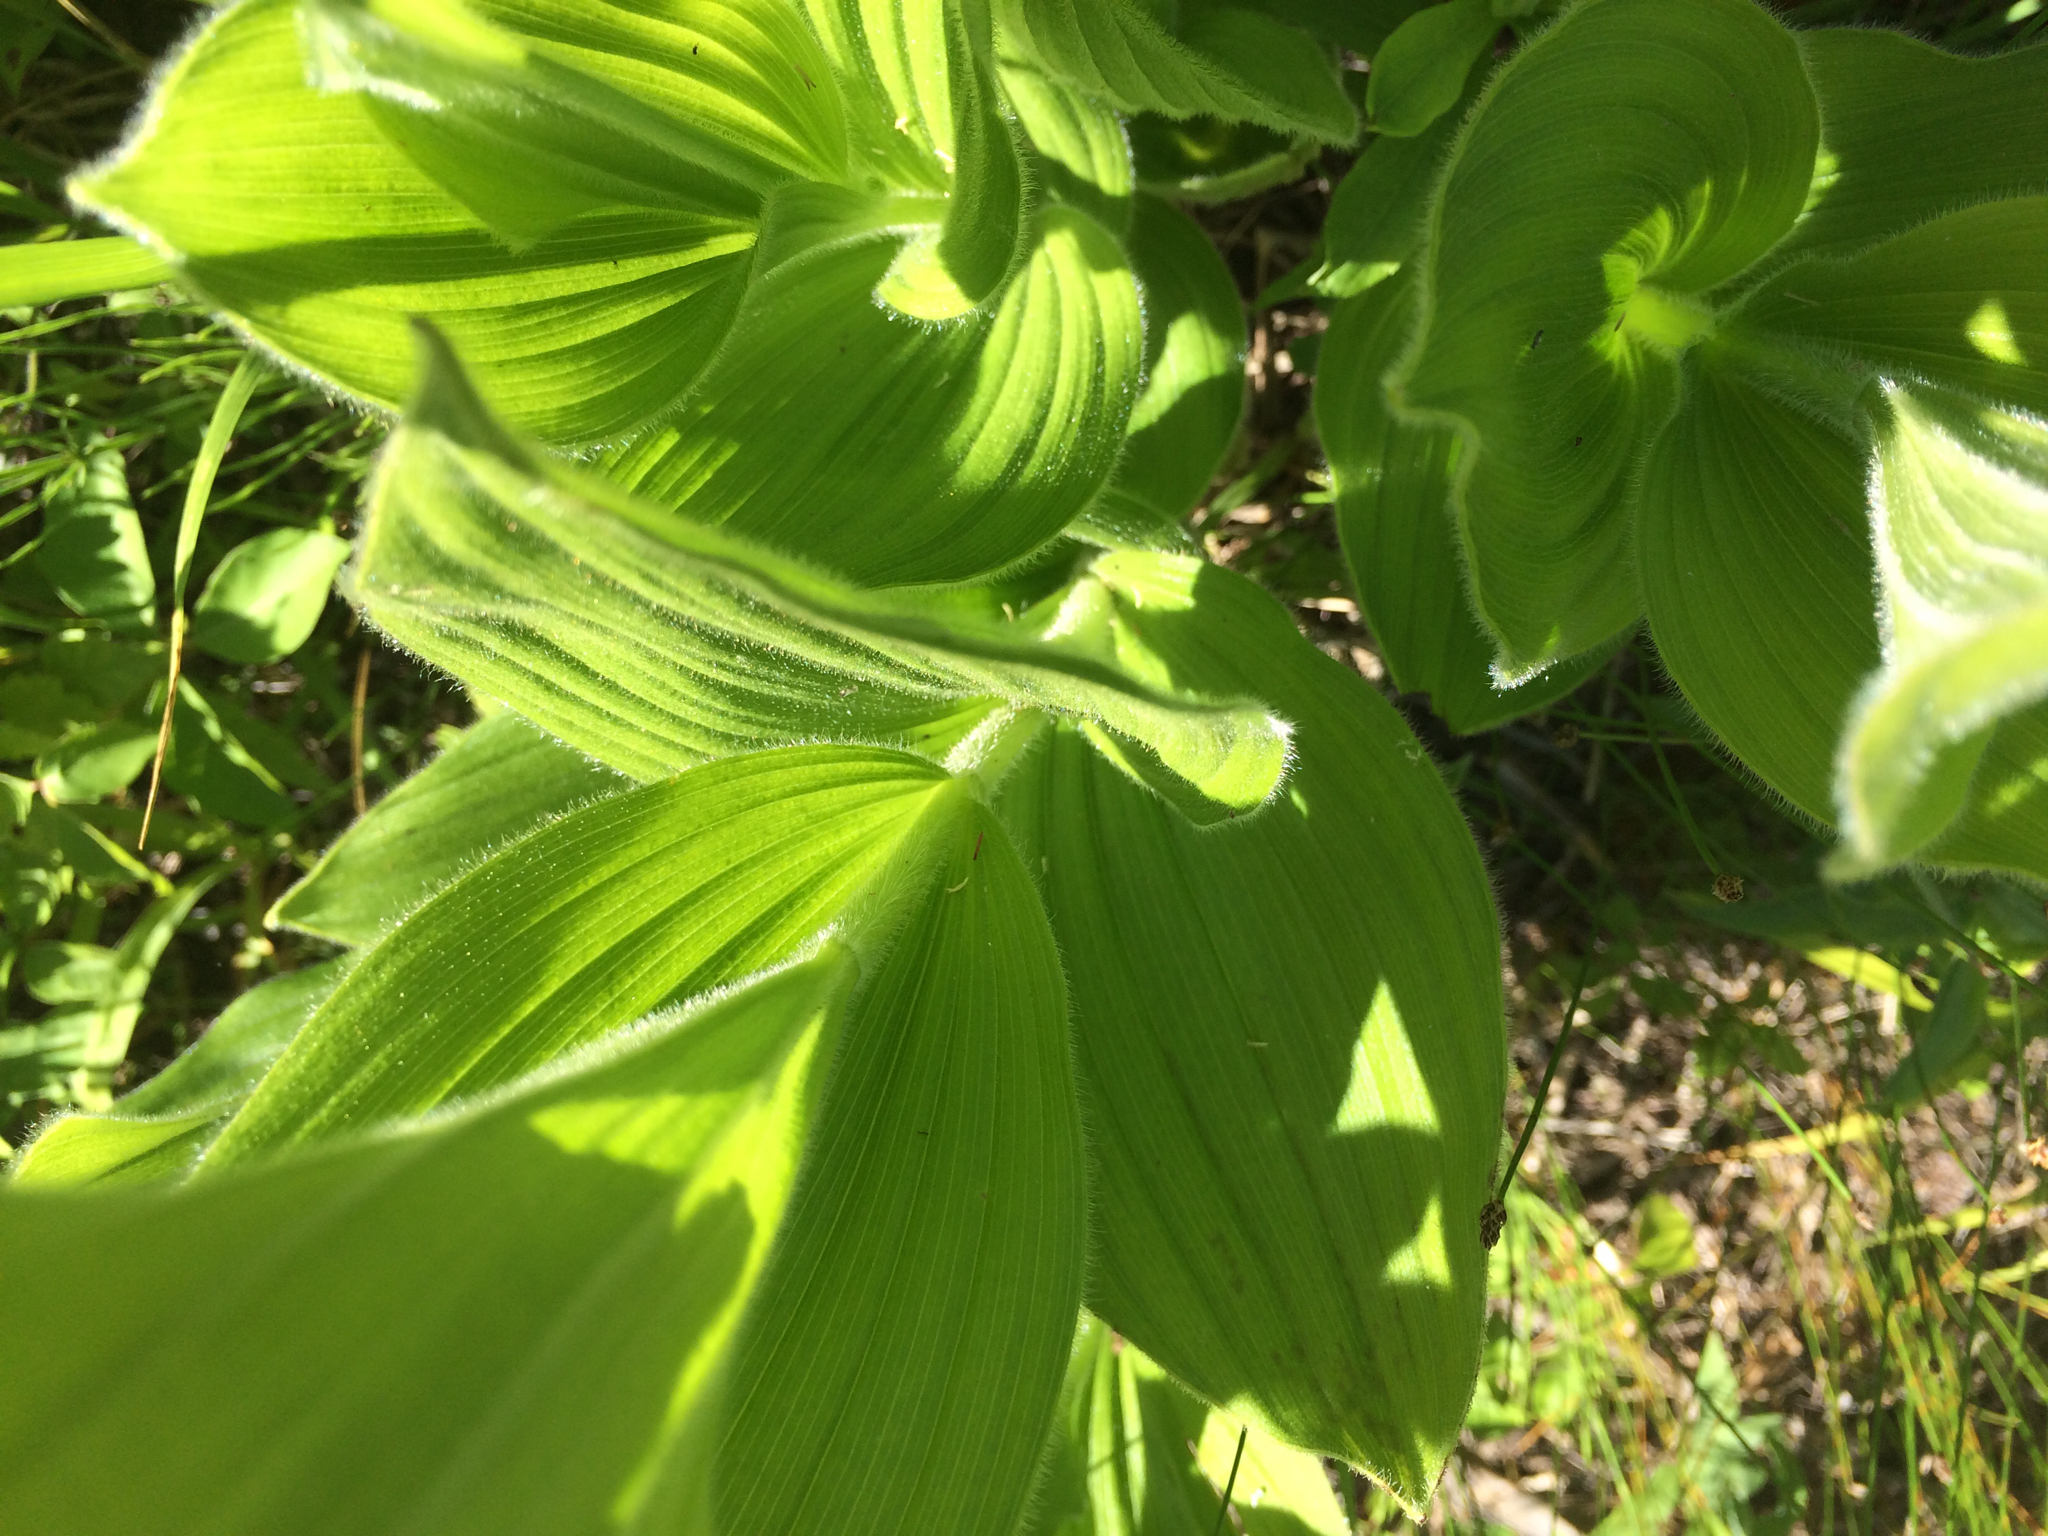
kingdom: Plantae
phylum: Tracheophyta
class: Liliopsida
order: Asparagales
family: Orchidaceae
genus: Cypripedium
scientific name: Cypripedium reginae
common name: Queen lady's-slipper
